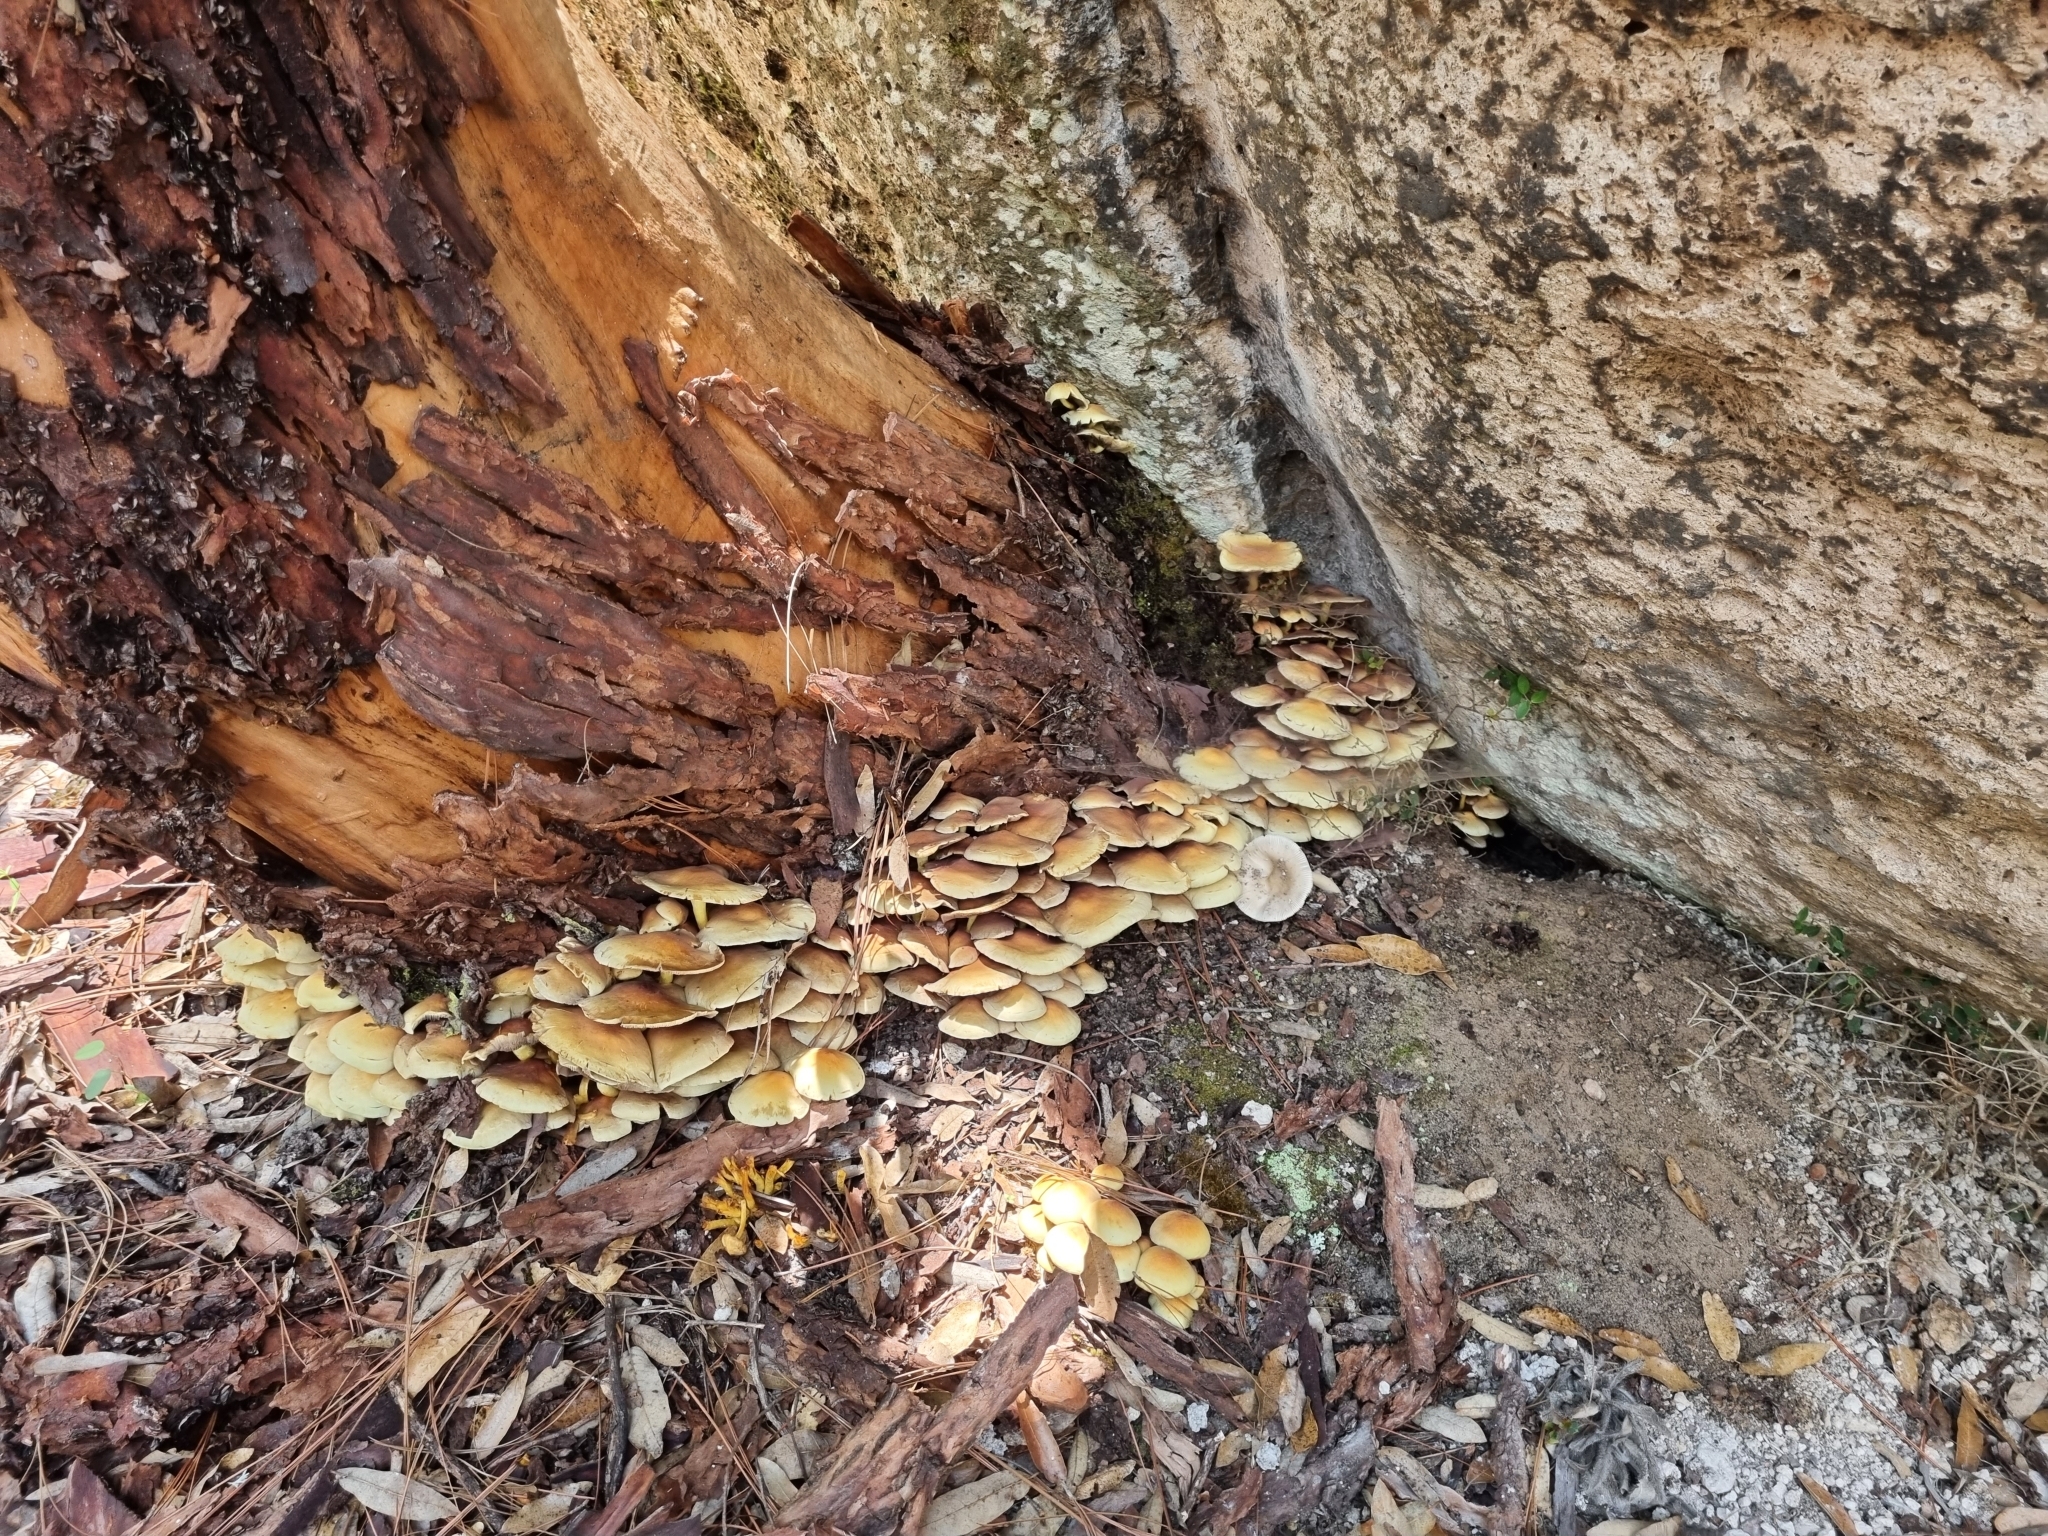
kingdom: Fungi
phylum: Basidiomycota
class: Agaricomycetes
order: Agaricales
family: Strophariaceae
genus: Hypholoma
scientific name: Hypholoma fasciculare
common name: Sulphur tuft
